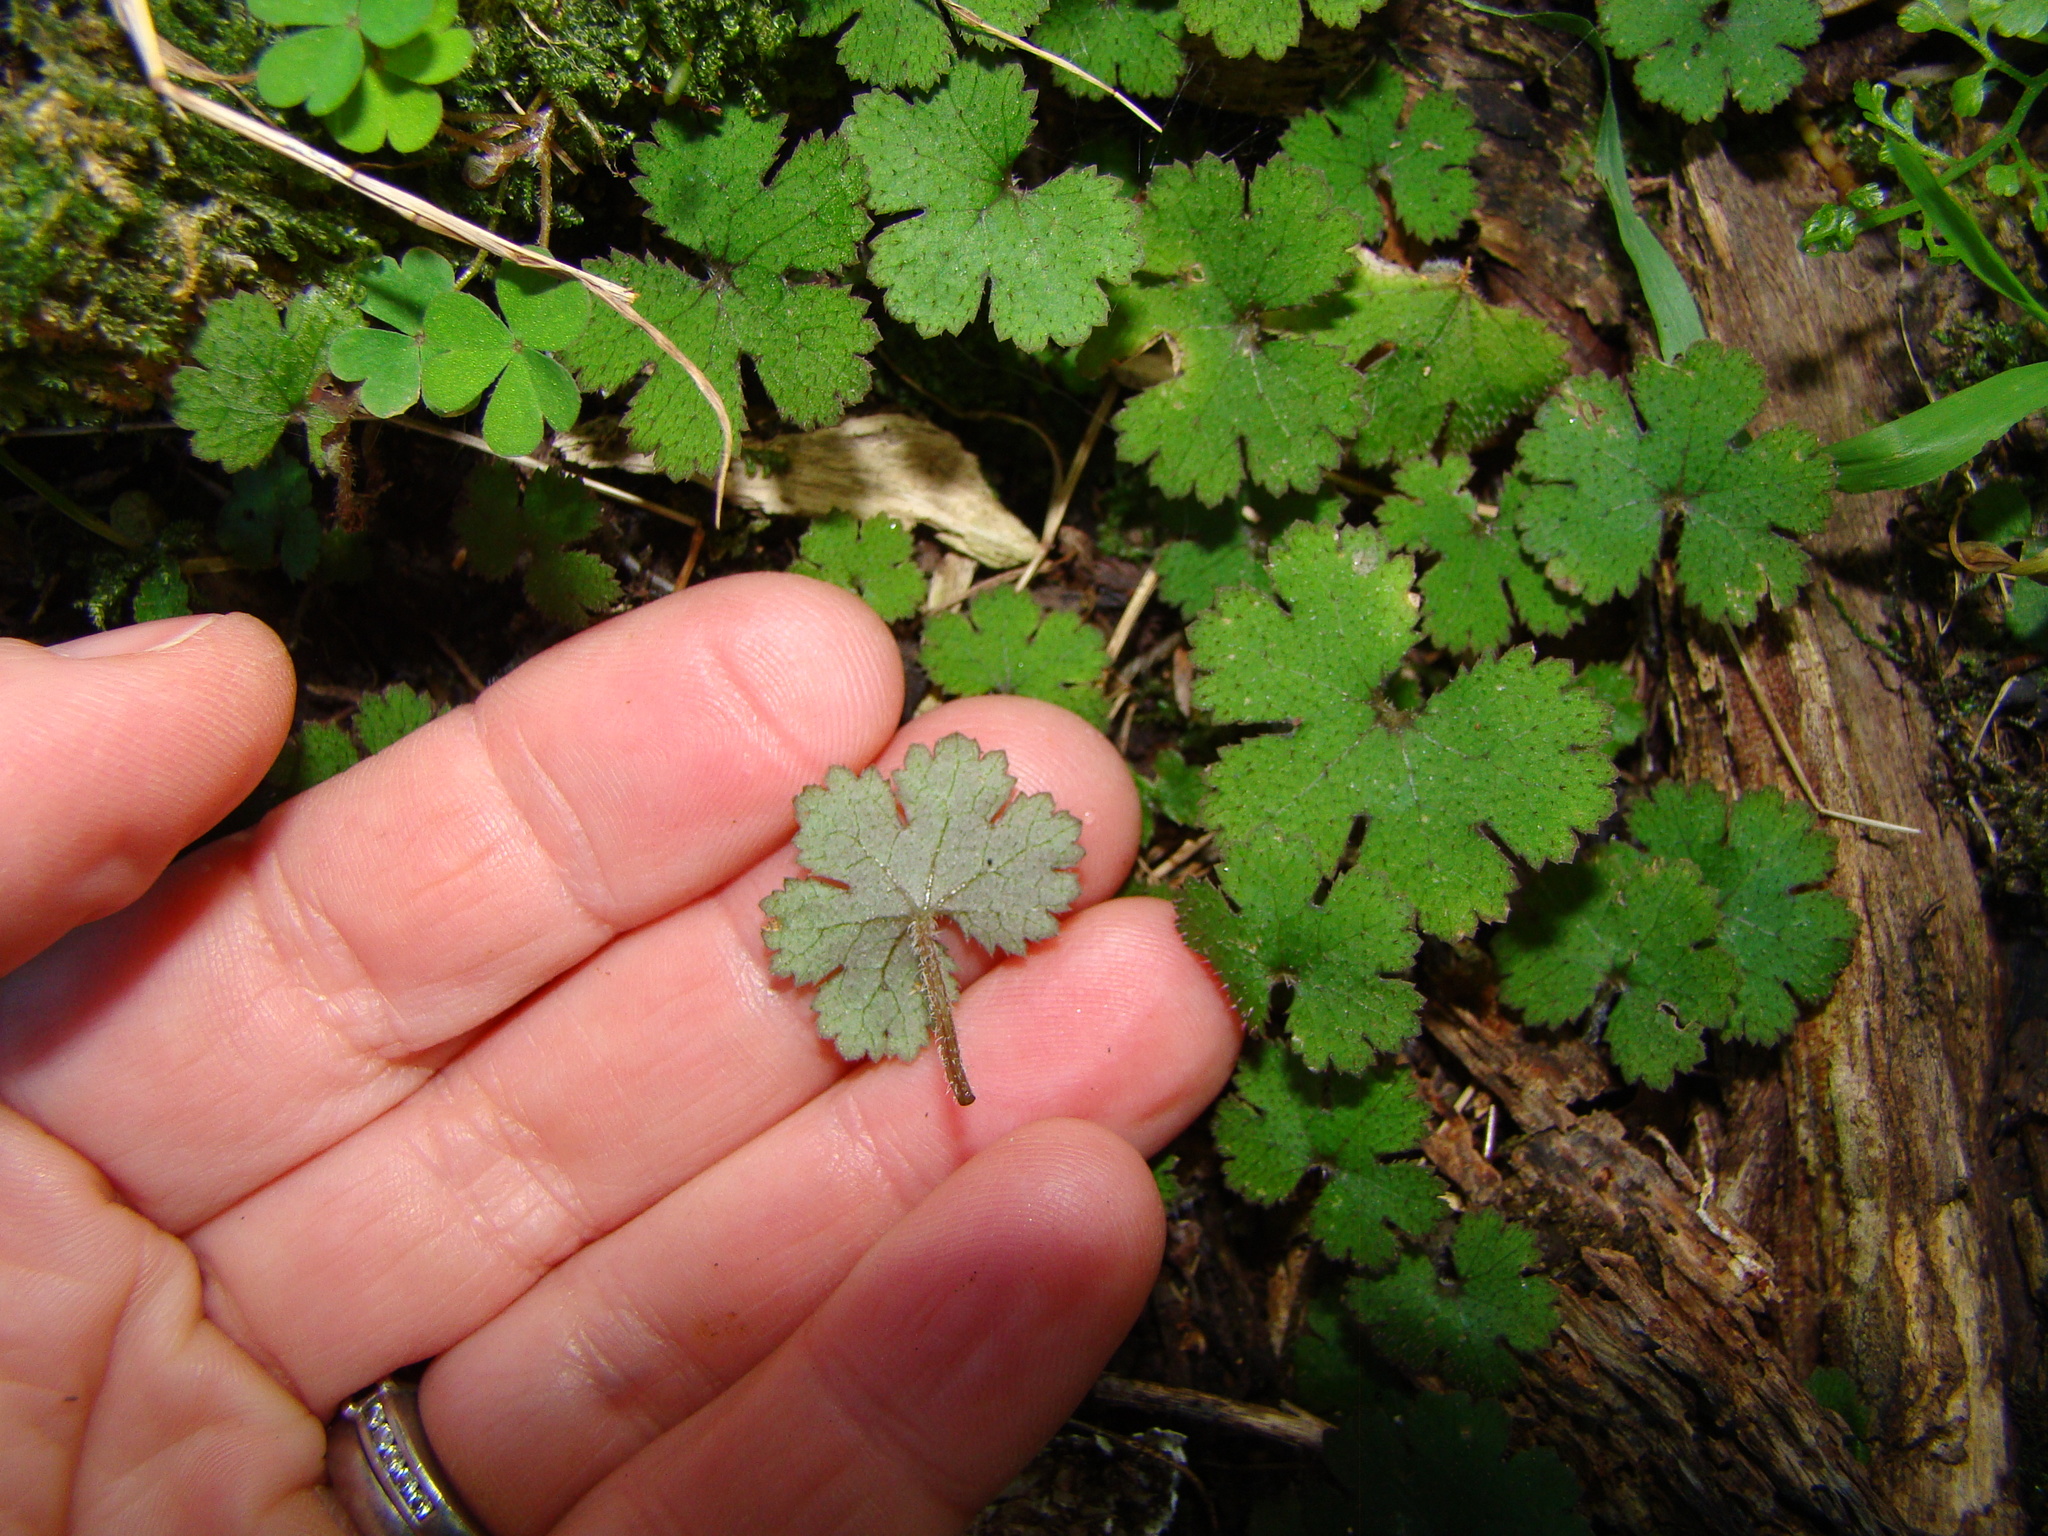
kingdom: Plantae
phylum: Tracheophyta
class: Magnoliopsida
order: Apiales
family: Araliaceae
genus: Hydrocotyle
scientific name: Hydrocotyle elongata
